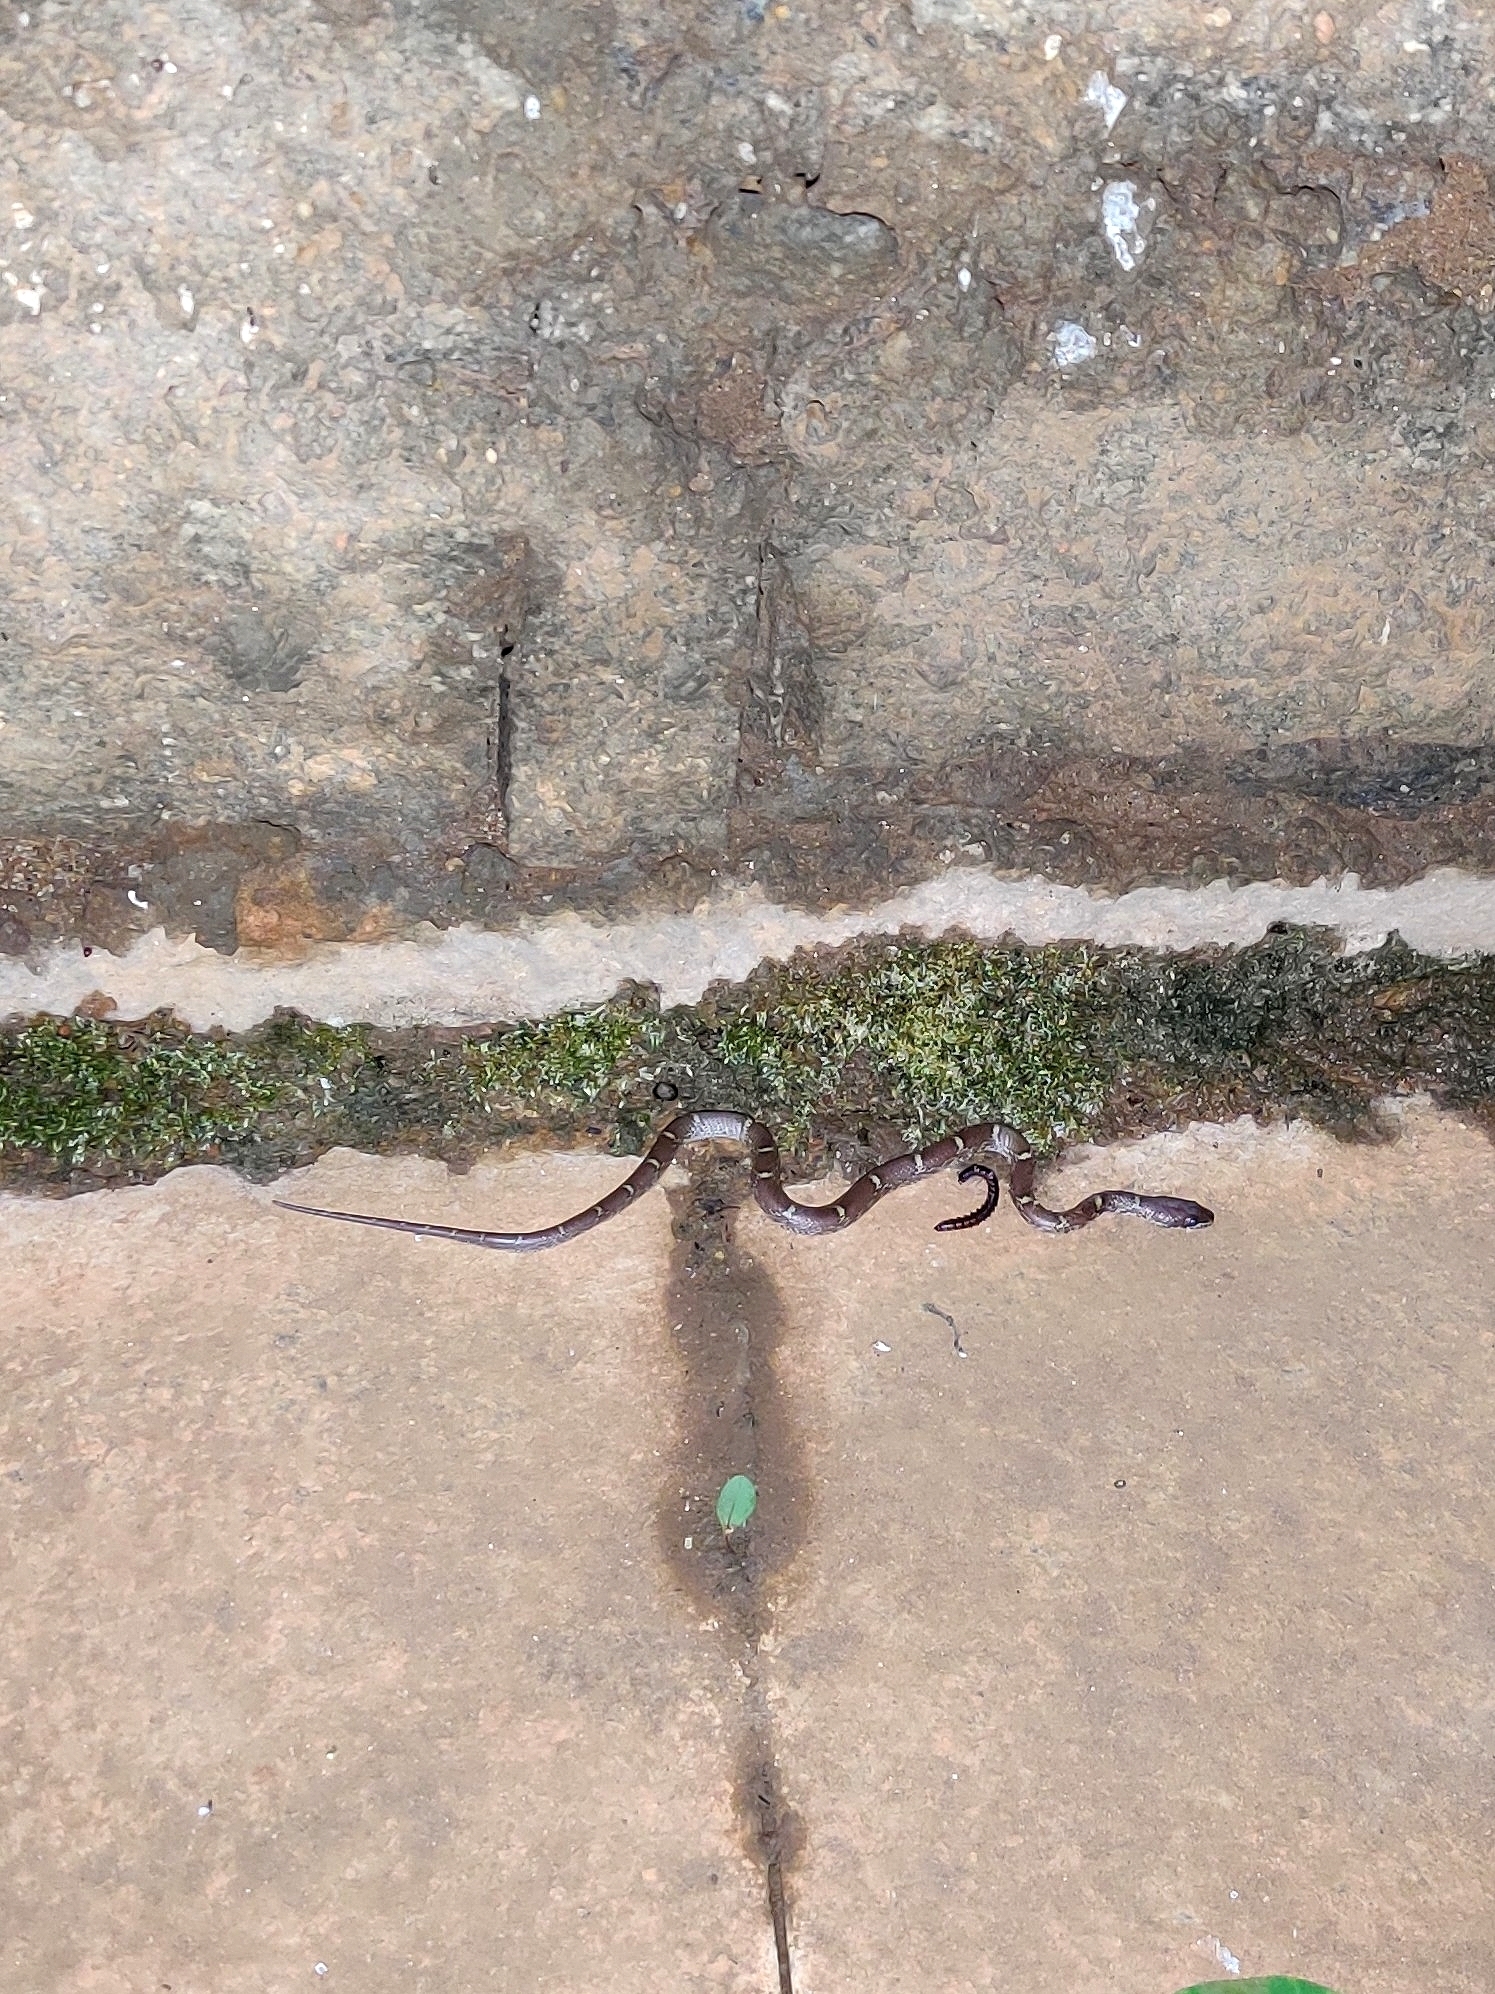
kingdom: Animalia
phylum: Chordata
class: Squamata
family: Colubridae
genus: Lycodon
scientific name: Lycodon fasciolatus
